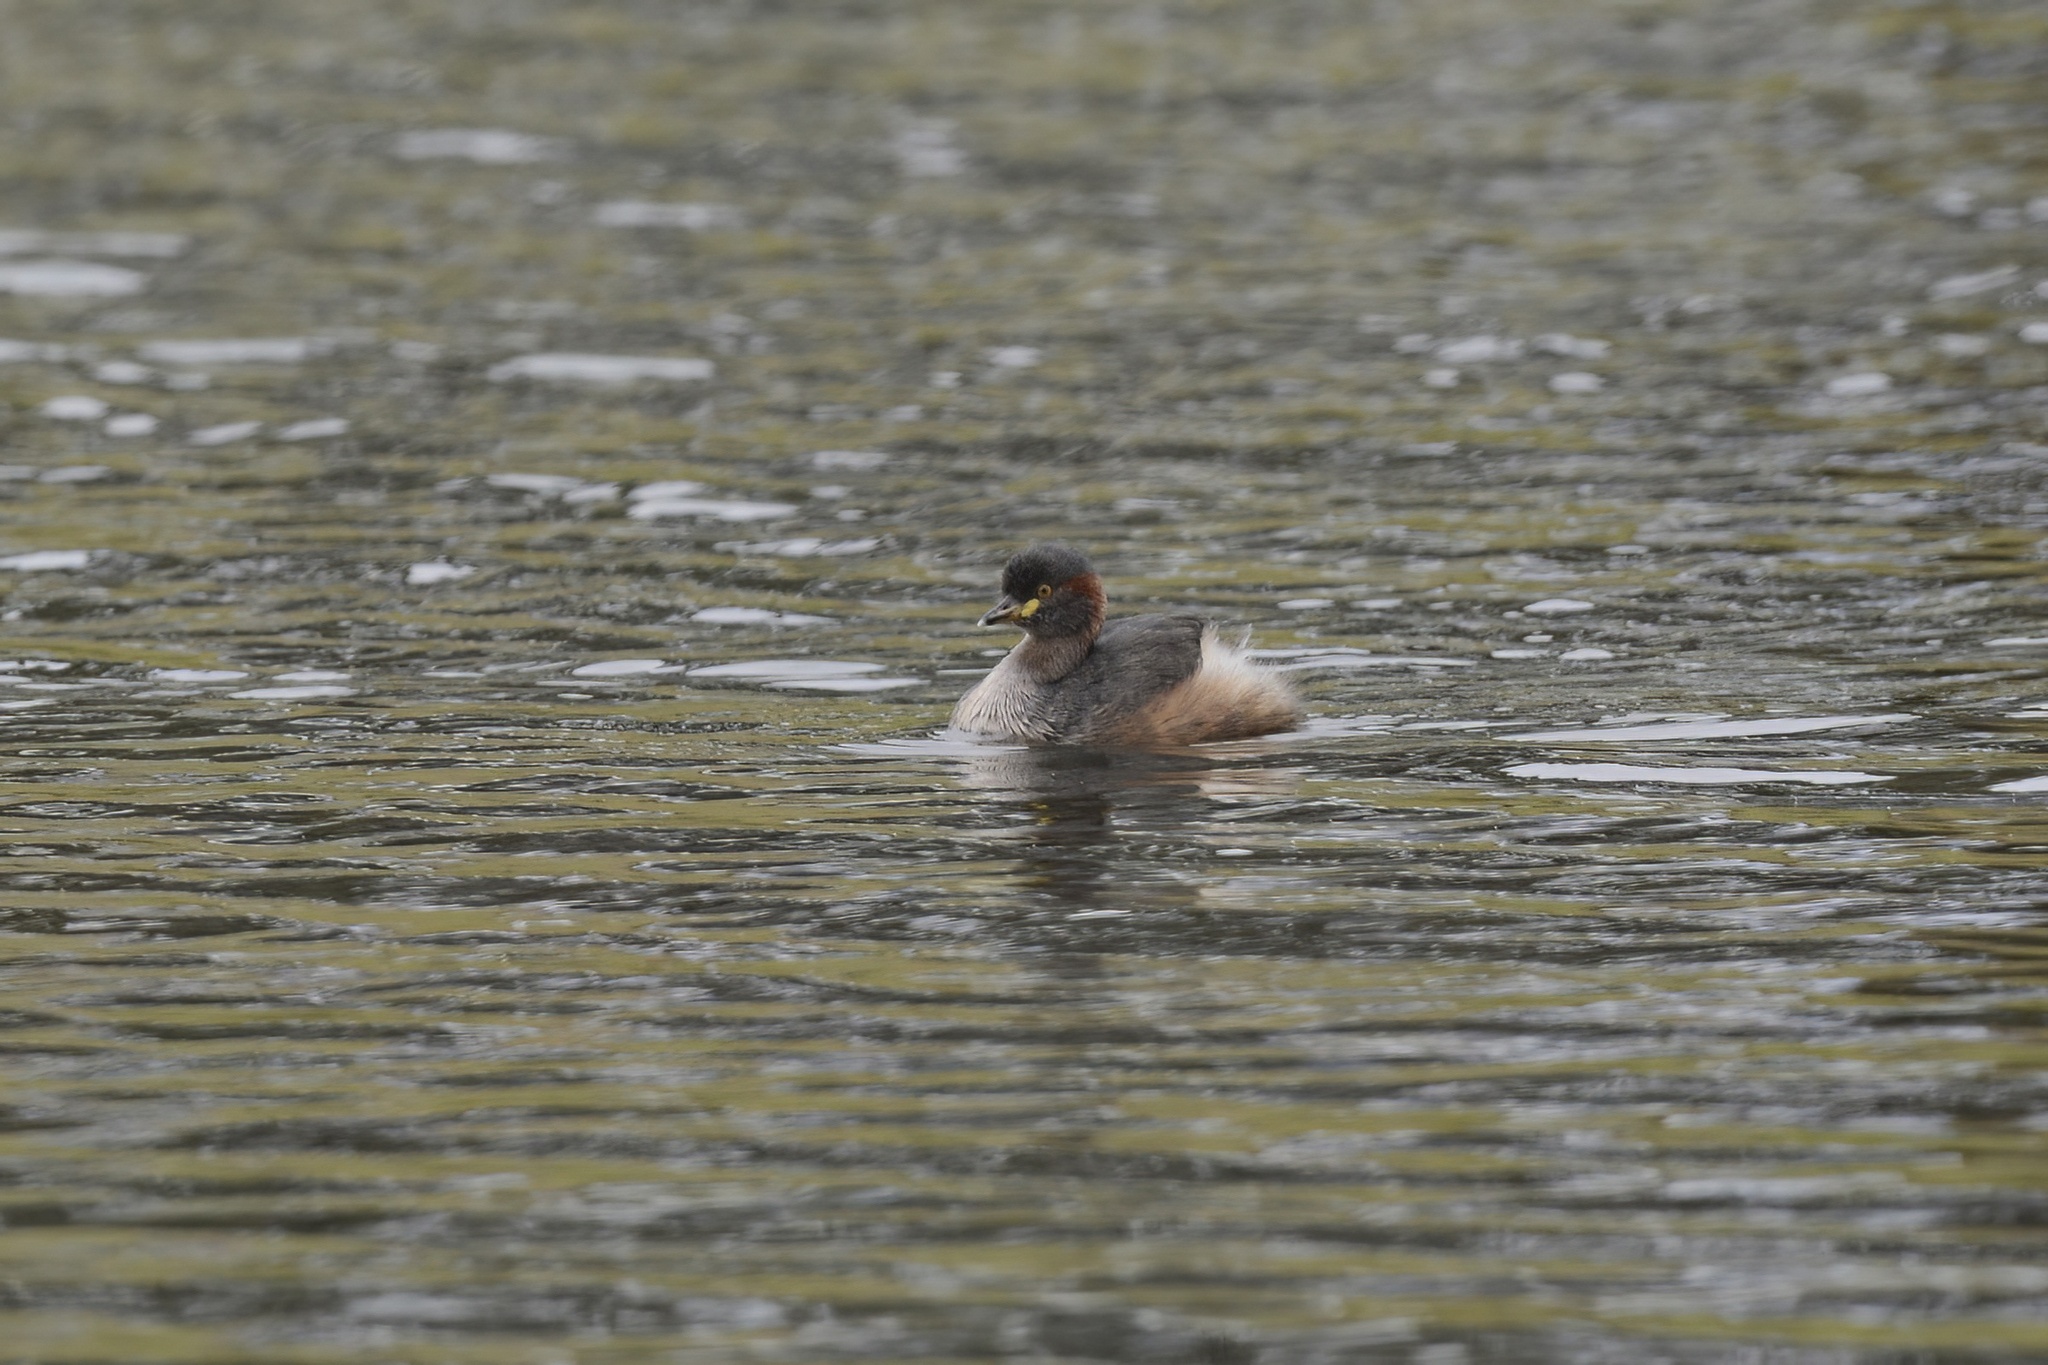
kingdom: Animalia
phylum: Chordata
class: Aves
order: Podicipediformes
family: Podicipedidae
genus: Tachybaptus
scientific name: Tachybaptus novaehollandiae
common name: Australasian grebe
